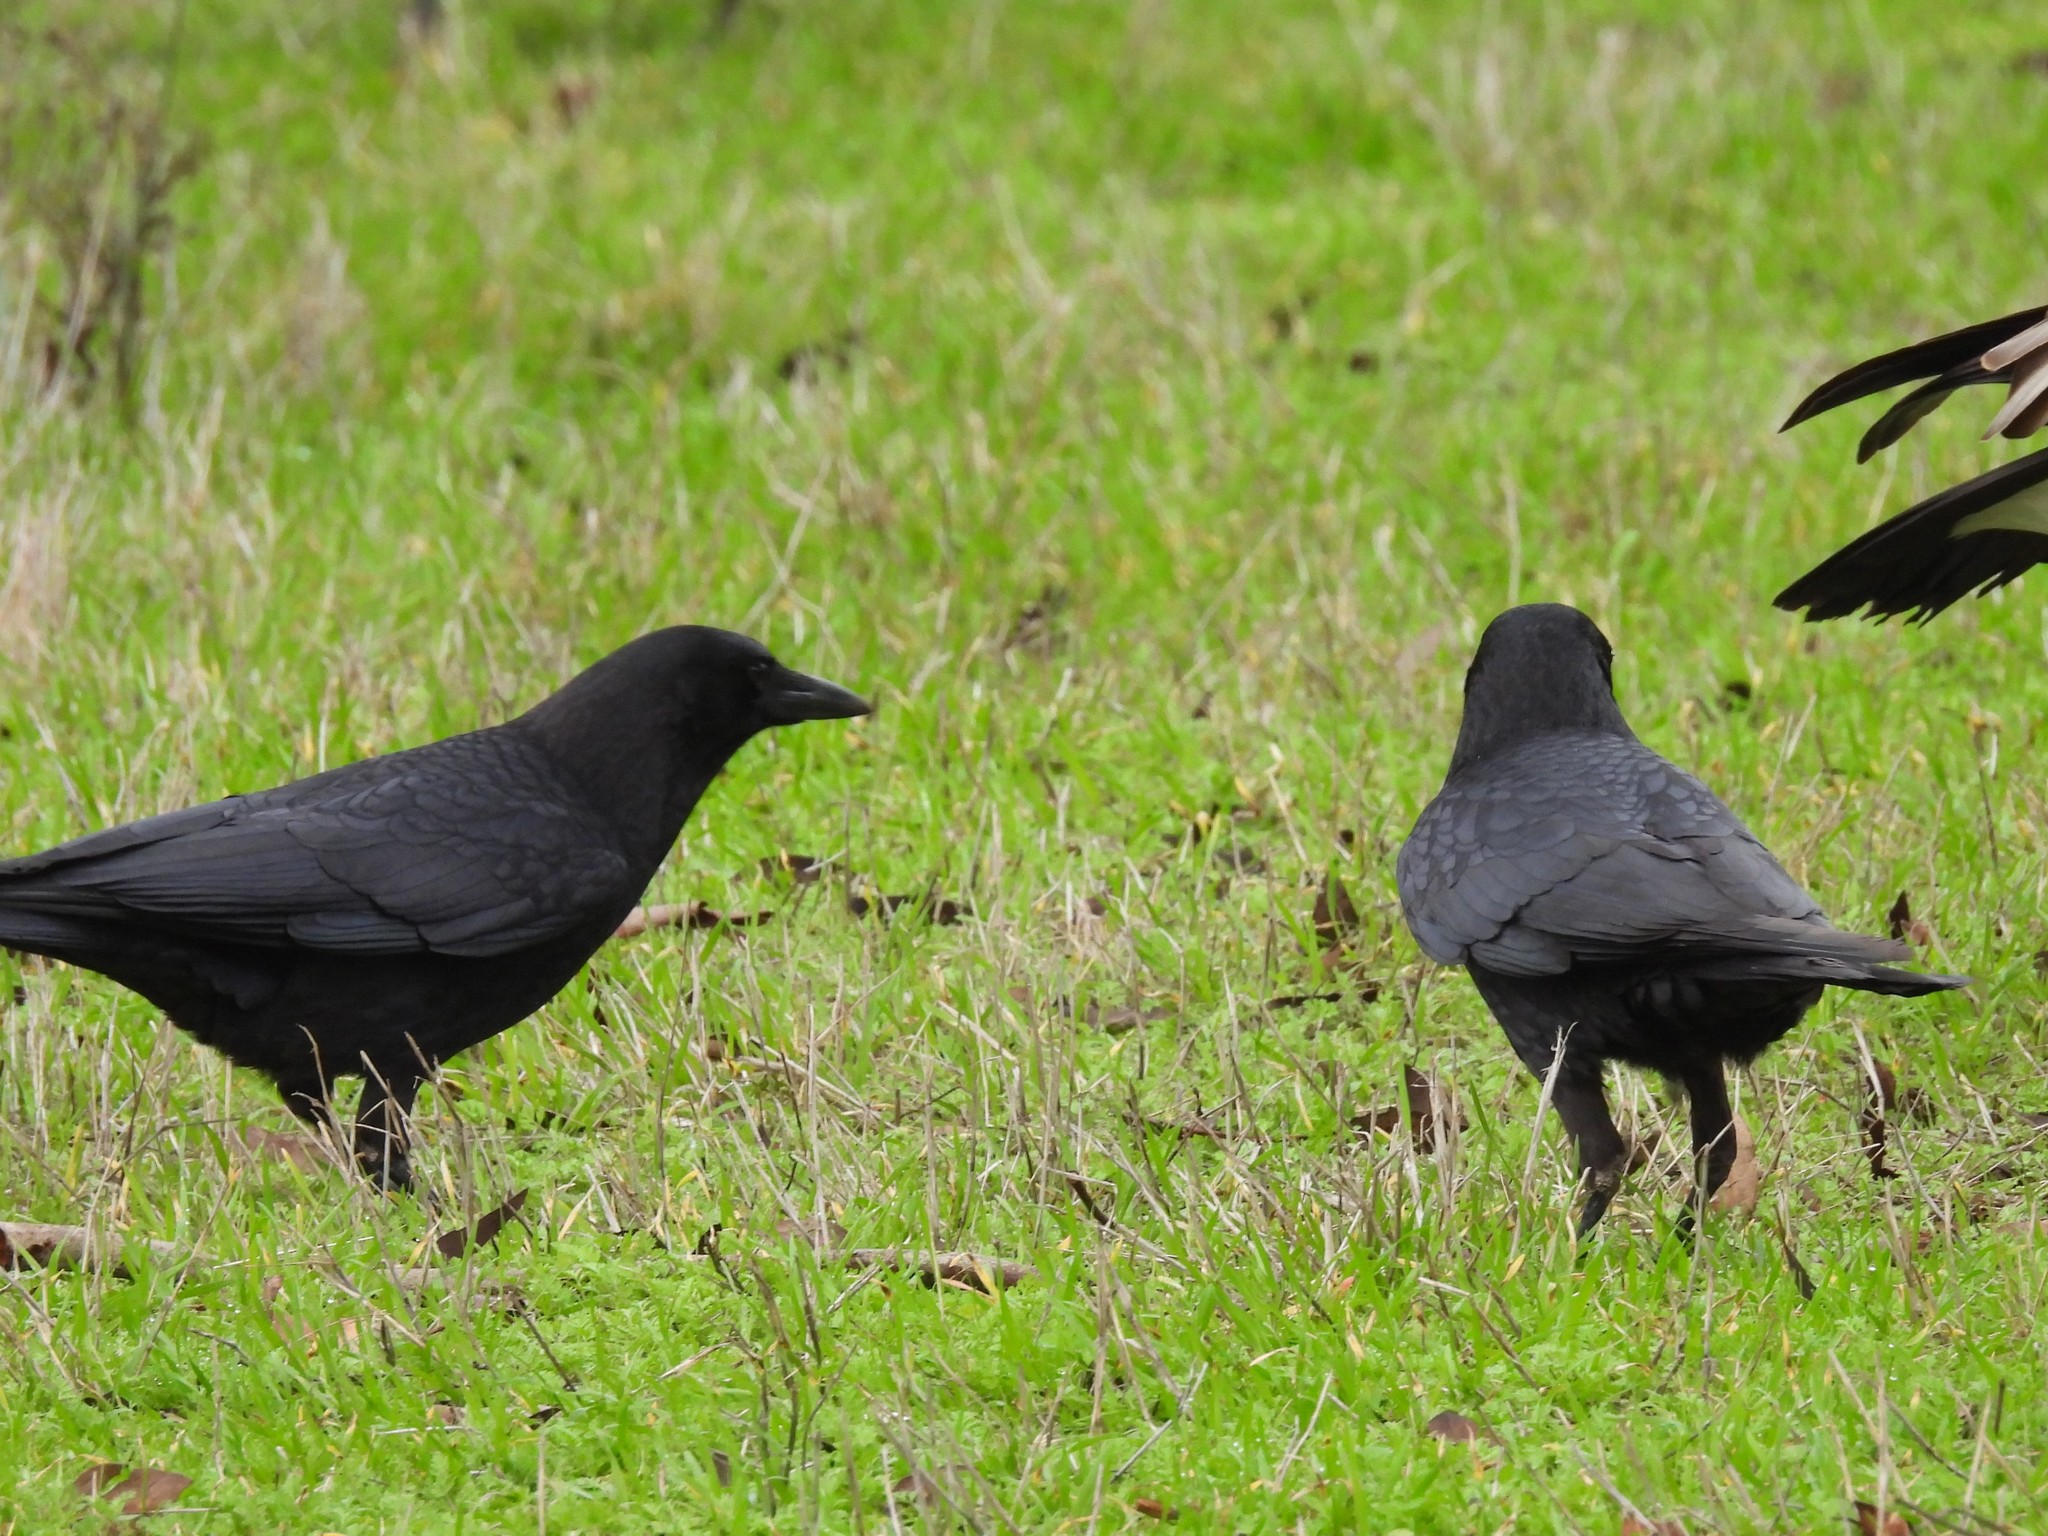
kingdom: Animalia
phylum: Chordata
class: Aves
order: Passeriformes
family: Corvidae
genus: Corvus
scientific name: Corvus brachyrhynchos
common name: American crow
